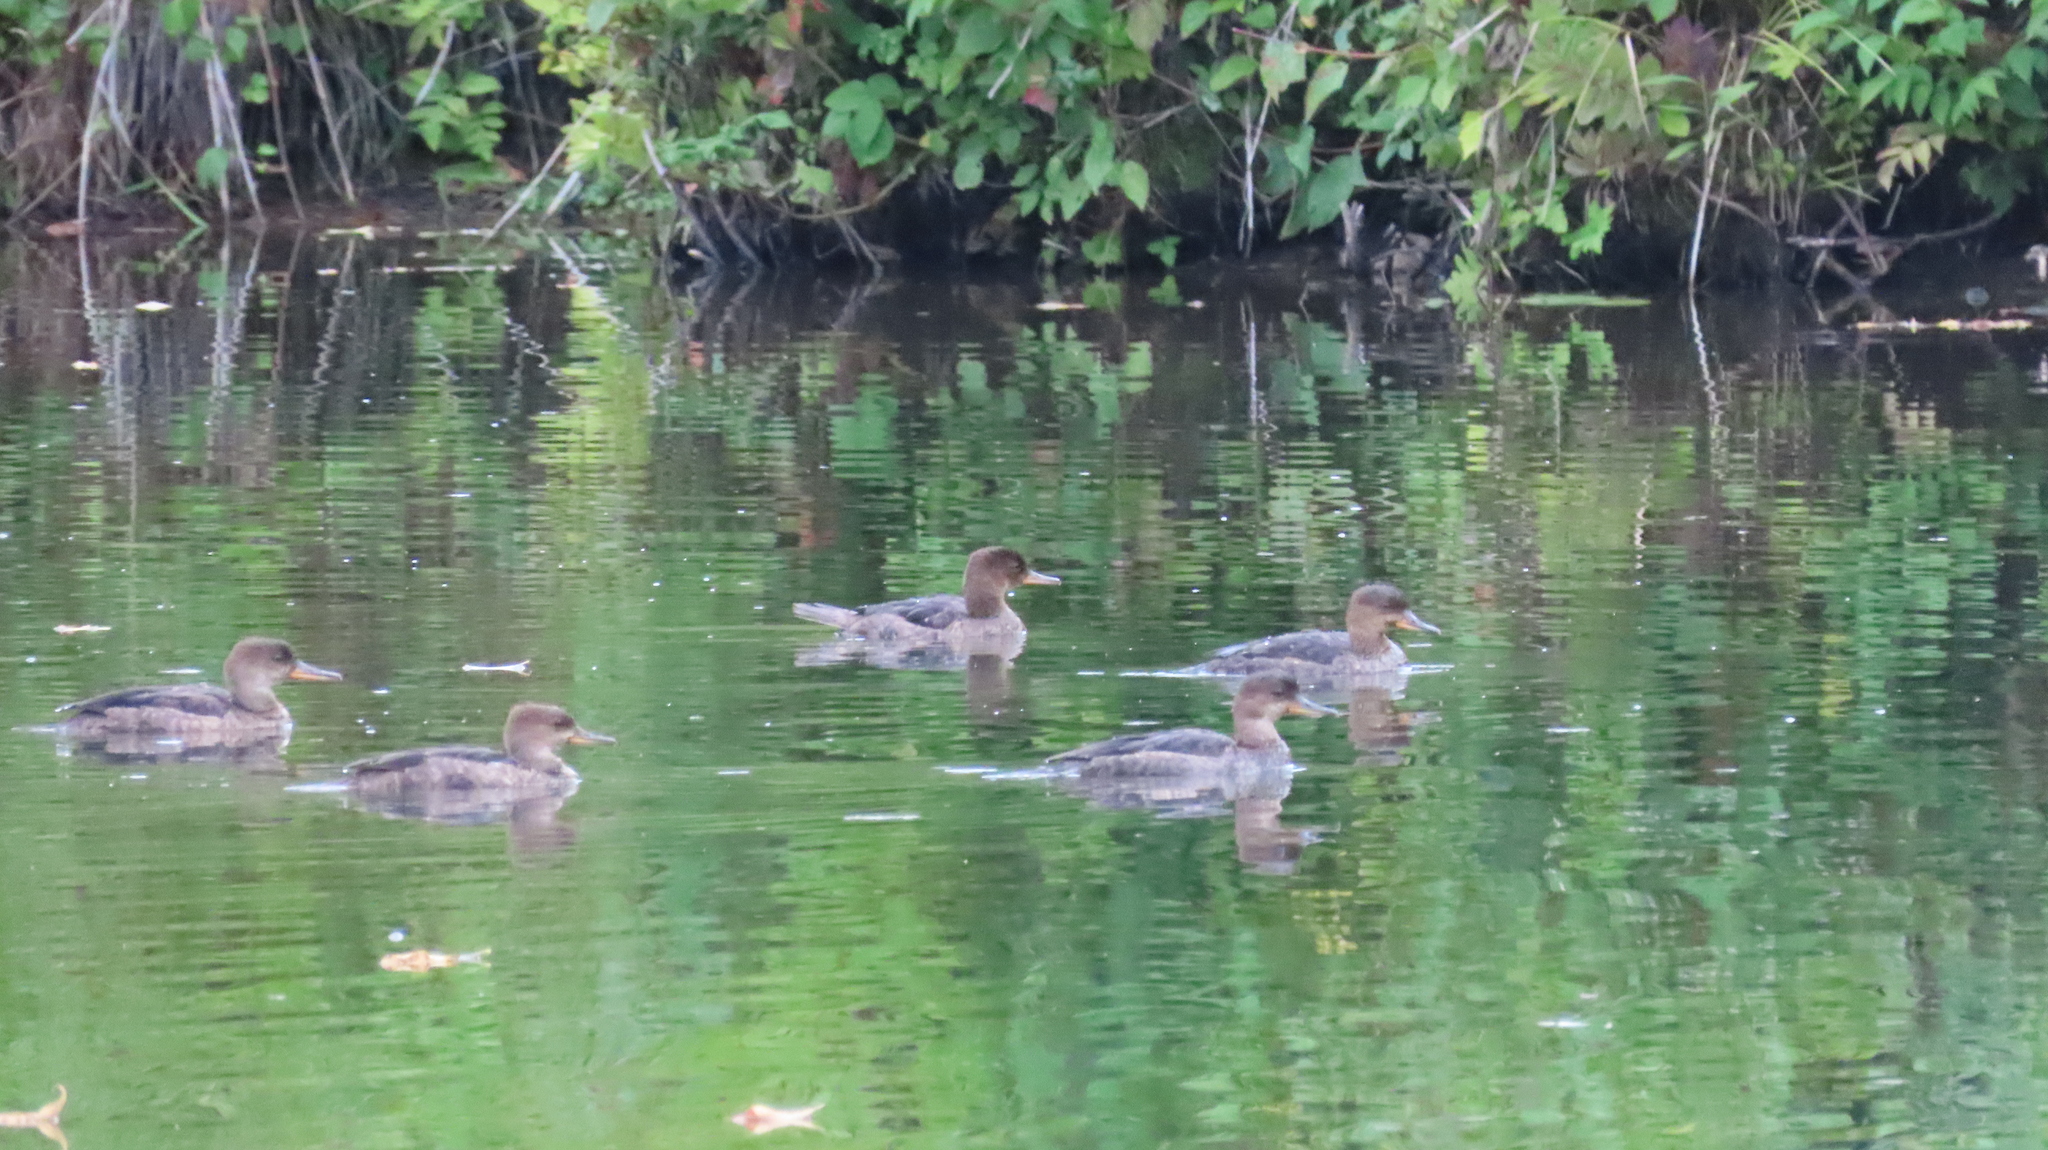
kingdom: Animalia
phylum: Chordata
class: Aves
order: Anseriformes
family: Anatidae
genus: Lophodytes
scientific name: Lophodytes cucullatus
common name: Hooded merganser
